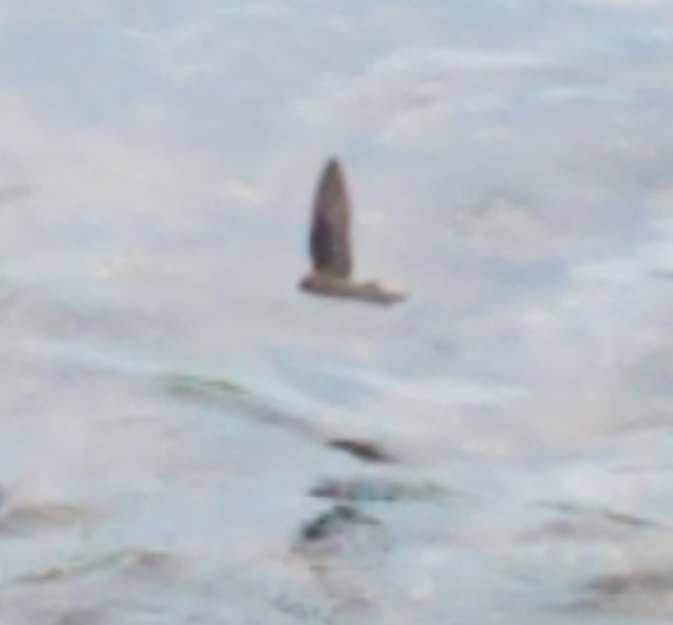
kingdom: Animalia
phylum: Chordata
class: Aves
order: Passeriformes
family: Hirundinidae
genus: Stelgidopteryx
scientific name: Stelgidopteryx serripennis
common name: Northern rough-winged swallow
